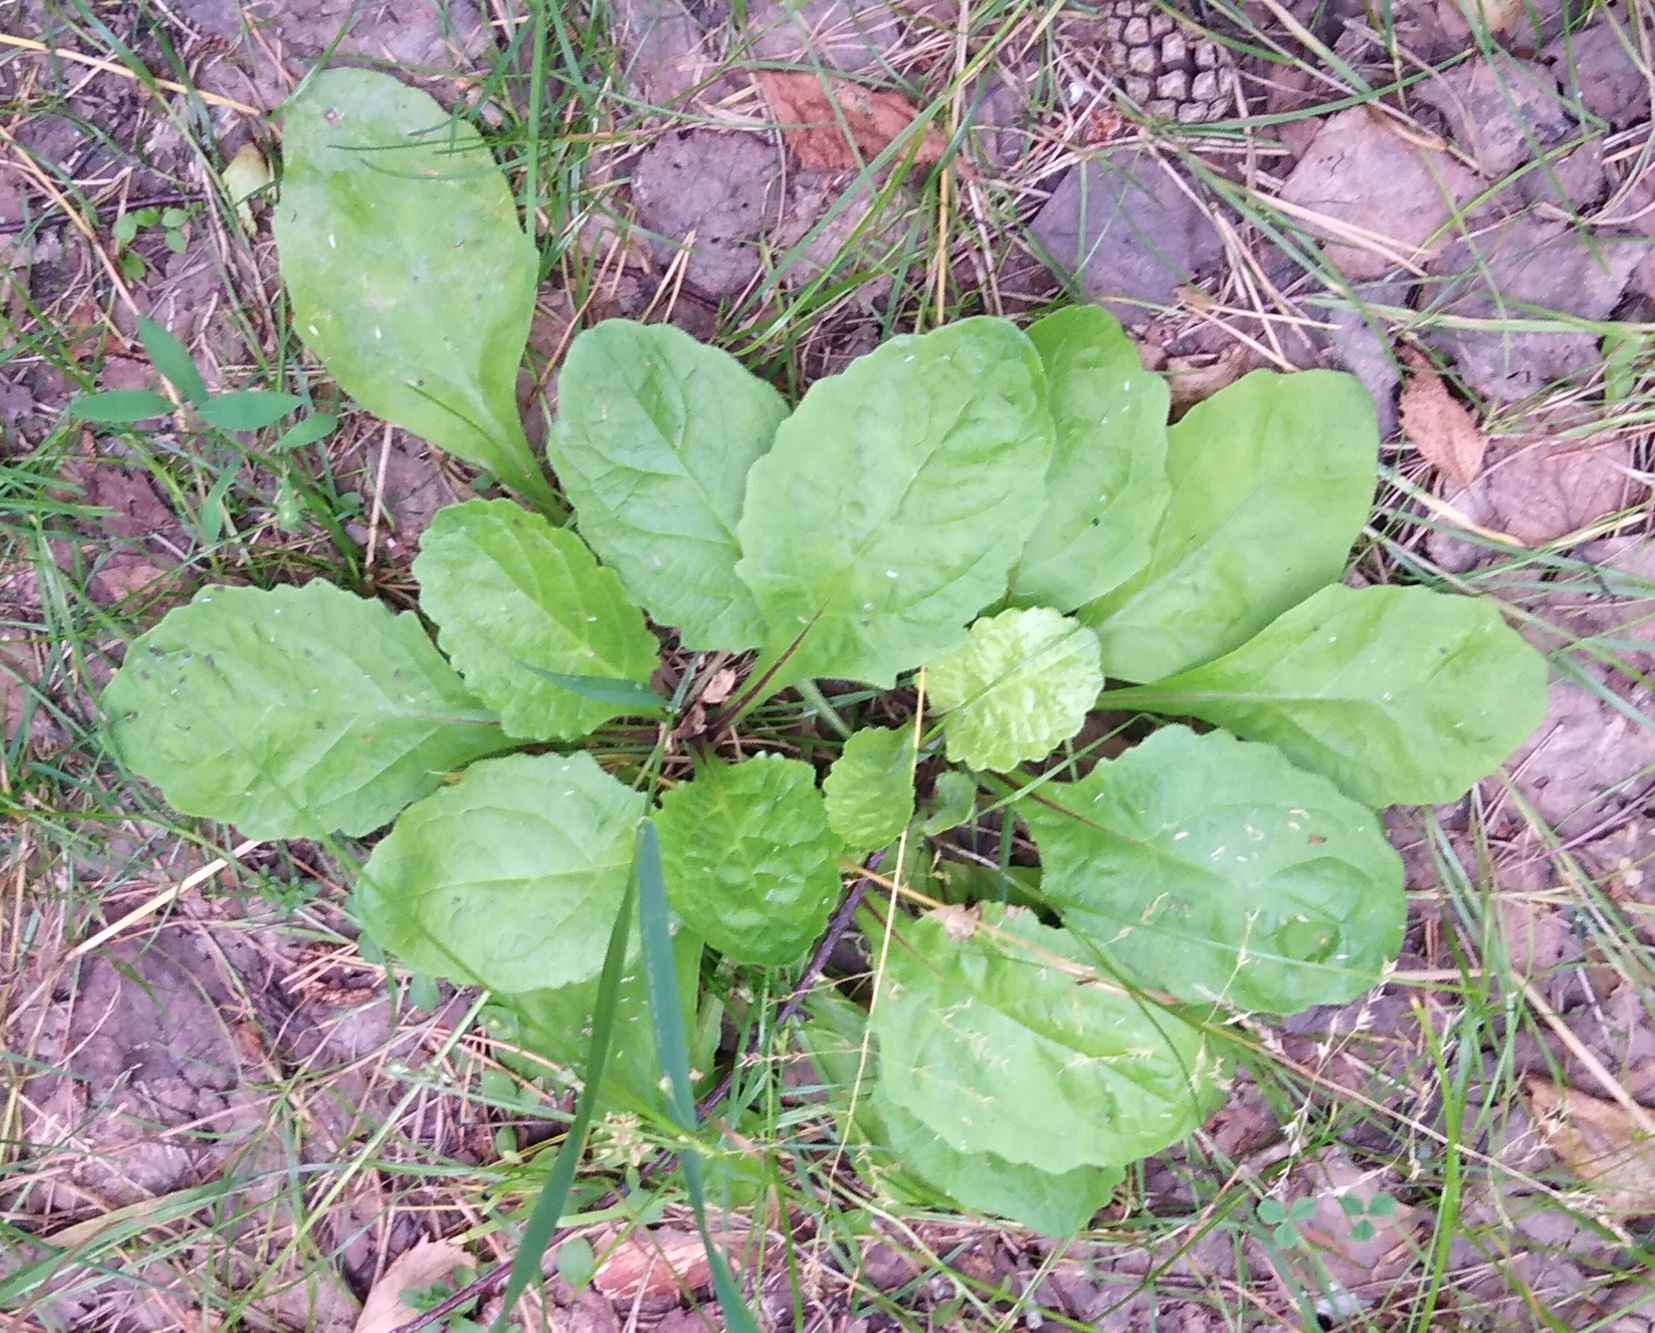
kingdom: Plantae
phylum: Tracheophyta
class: Magnoliopsida
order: Asterales
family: Asteraceae
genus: Jacobaea
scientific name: Jacobaea vulgaris
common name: Stinking willie
